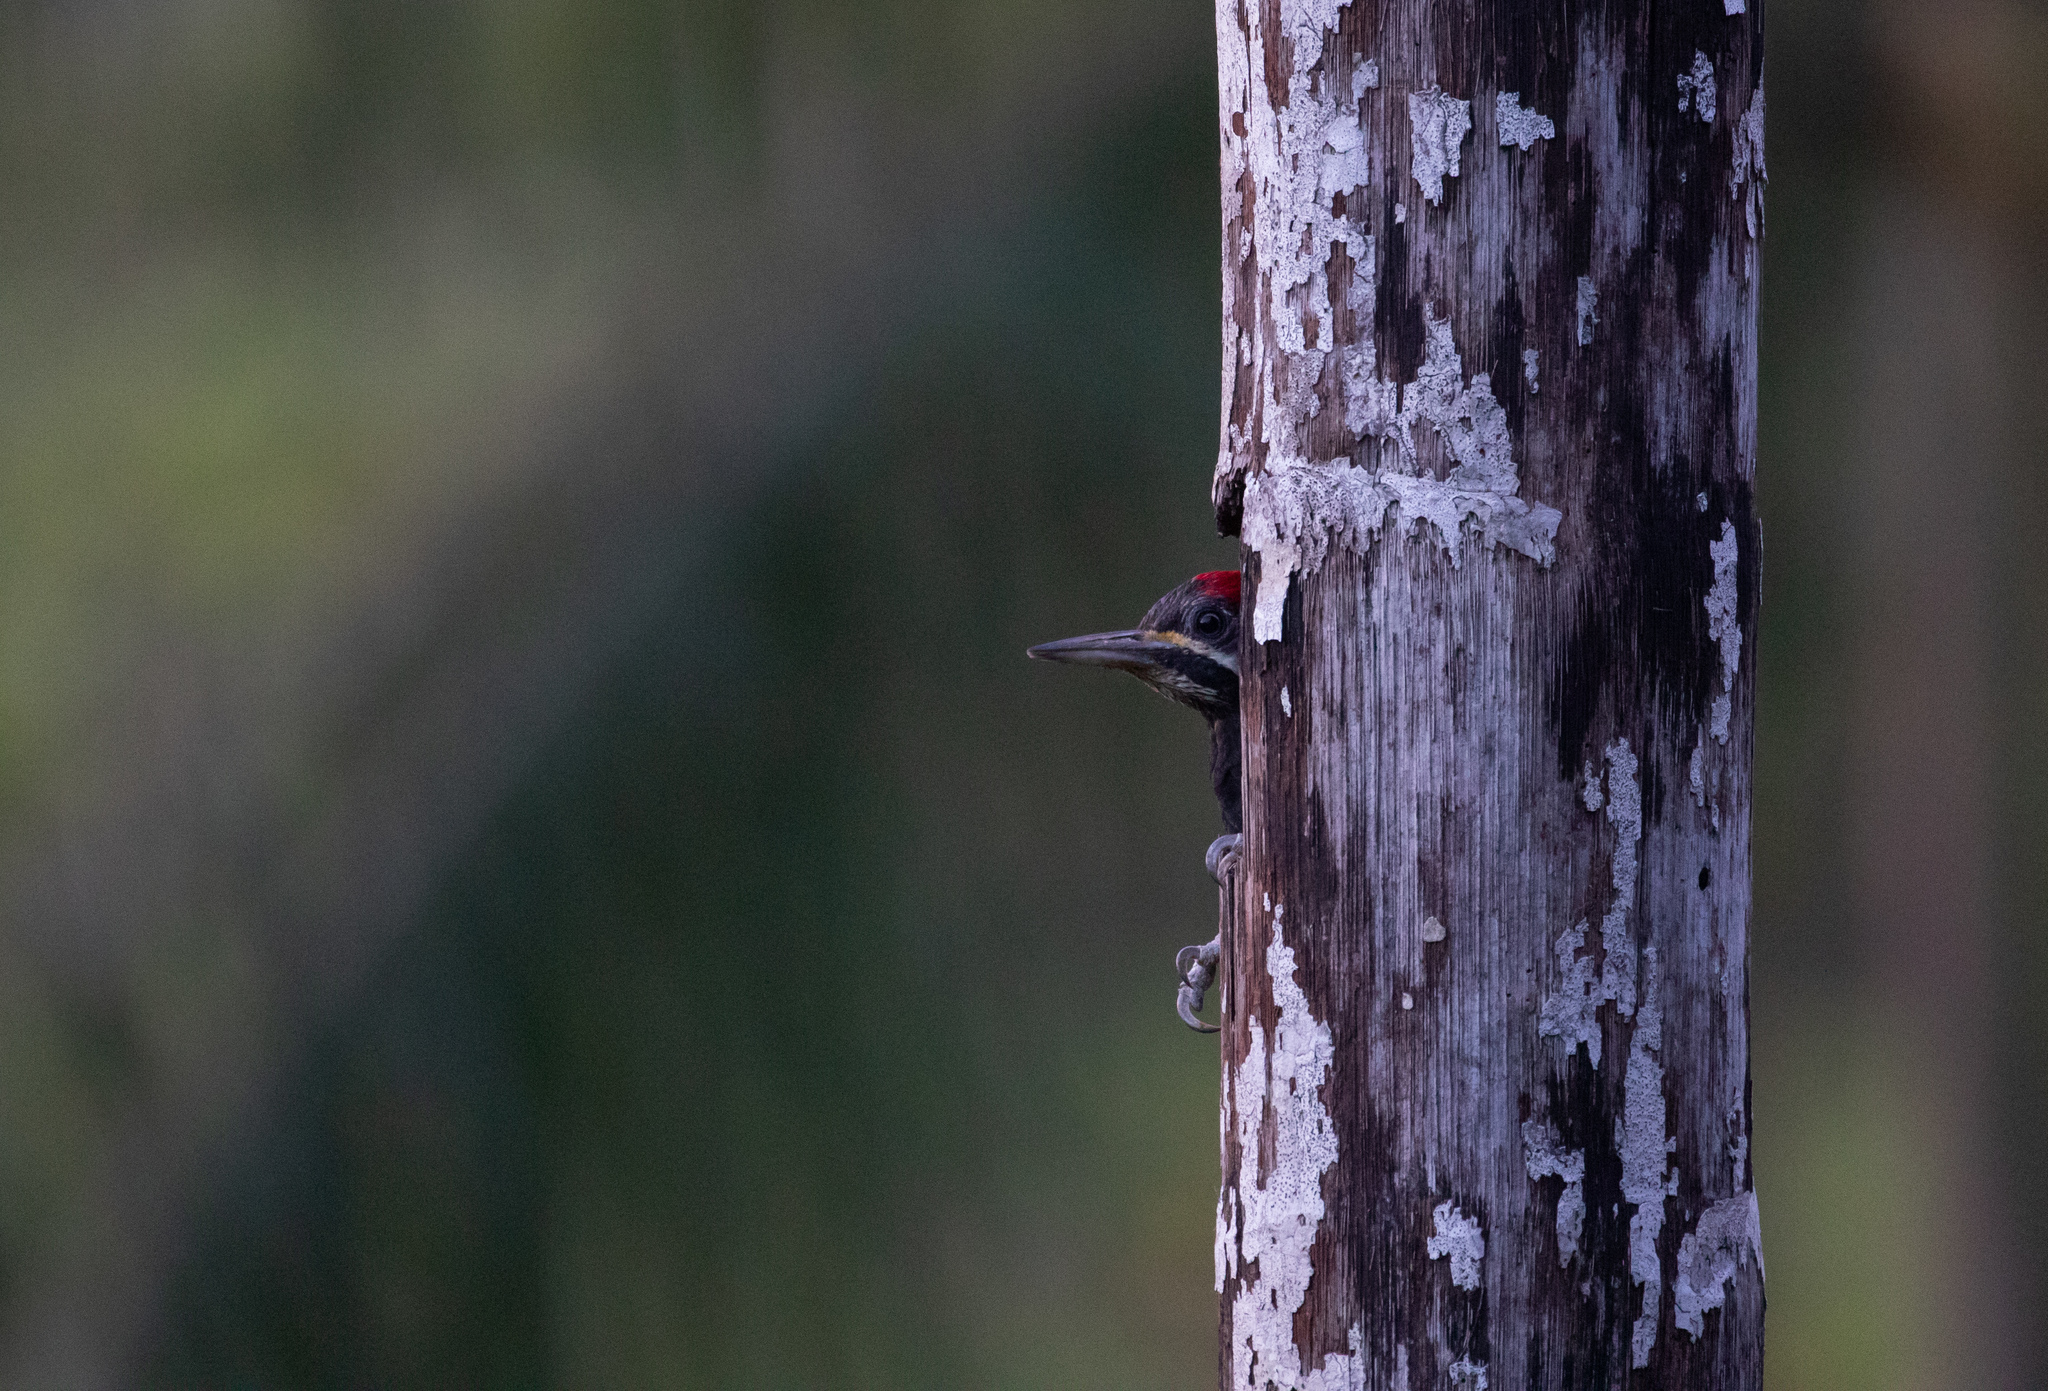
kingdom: Animalia
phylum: Chordata
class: Aves
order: Piciformes
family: Picidae
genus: Dryocopus
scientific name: Dryocopus lineatus
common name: Lineated woodpecker
